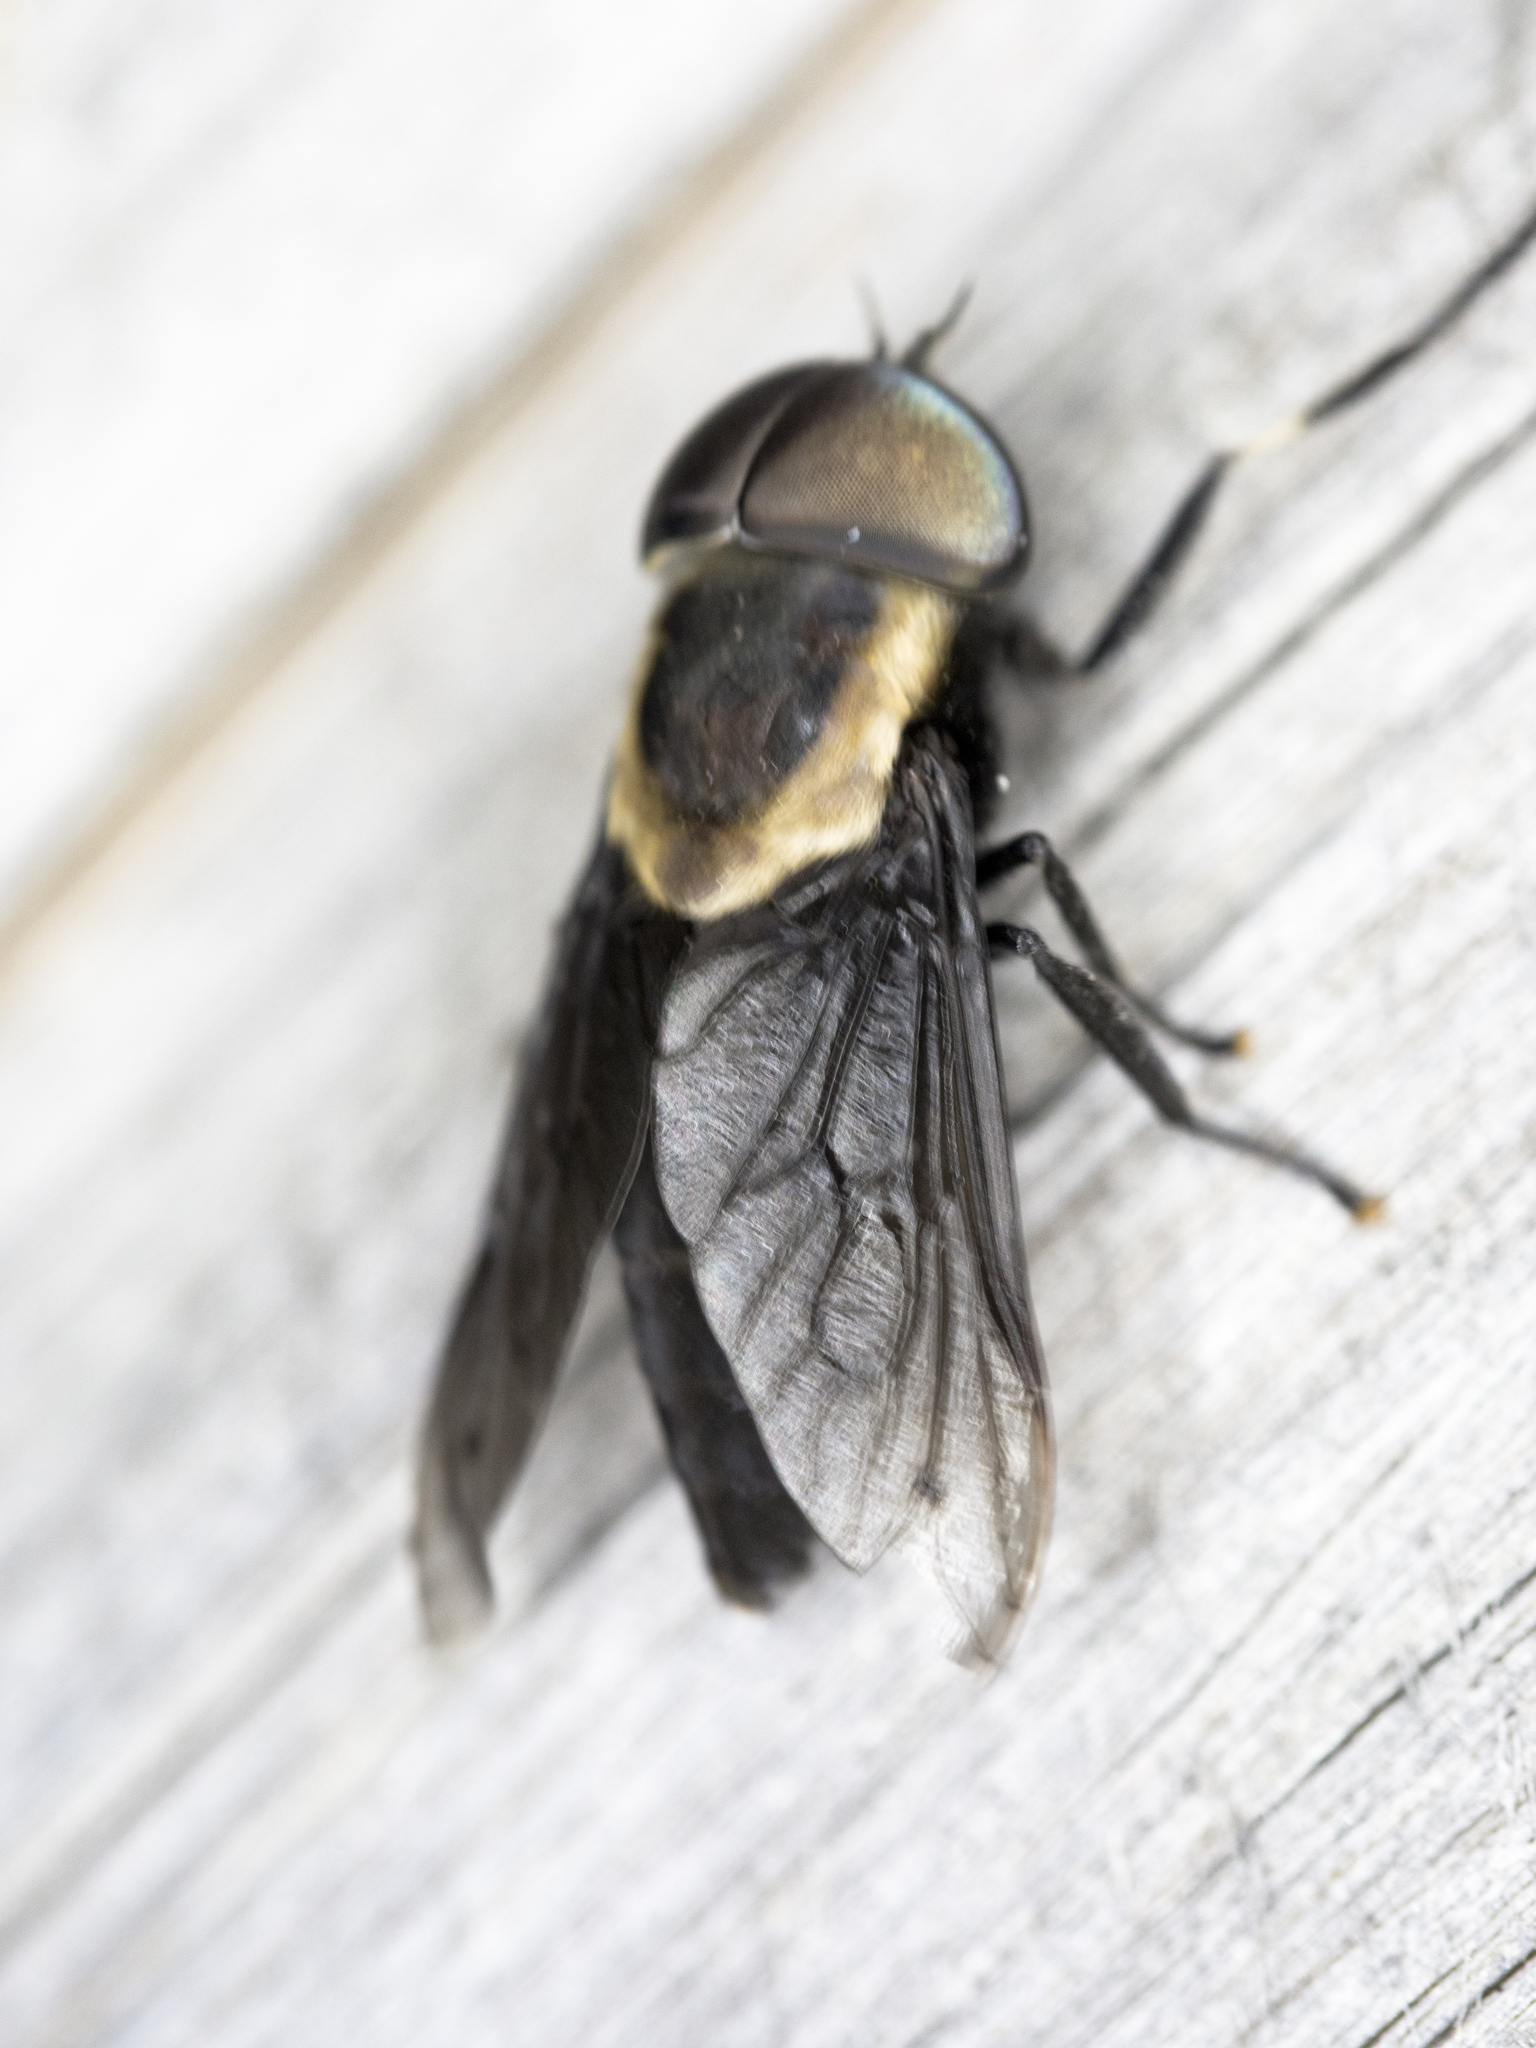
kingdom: Animalia
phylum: Arthropoda
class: Insecta
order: Diptera
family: Tabanidae
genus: Tabanus
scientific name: Tabanus punctifer
